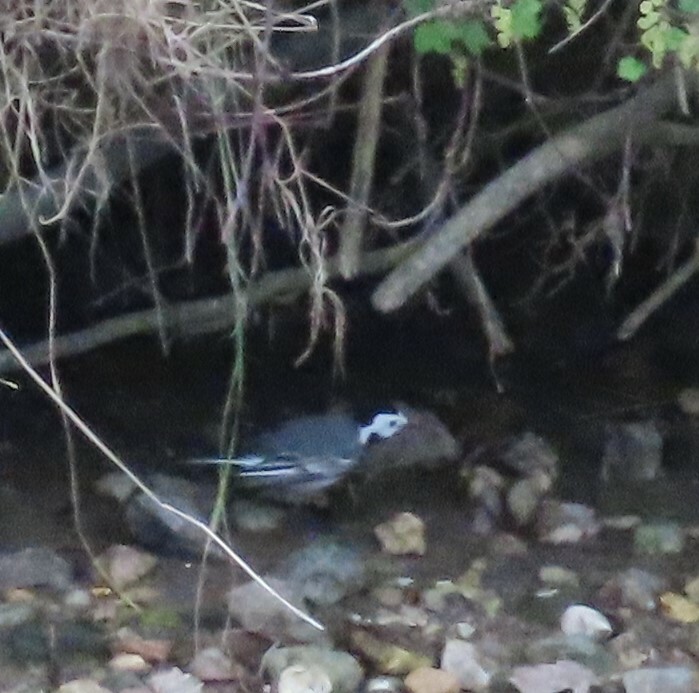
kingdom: Animalia
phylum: Chordata
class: Aves
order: Passeriformes
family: Motacillidae
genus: Motacilla
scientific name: Motacilla alba
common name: White wagtail
